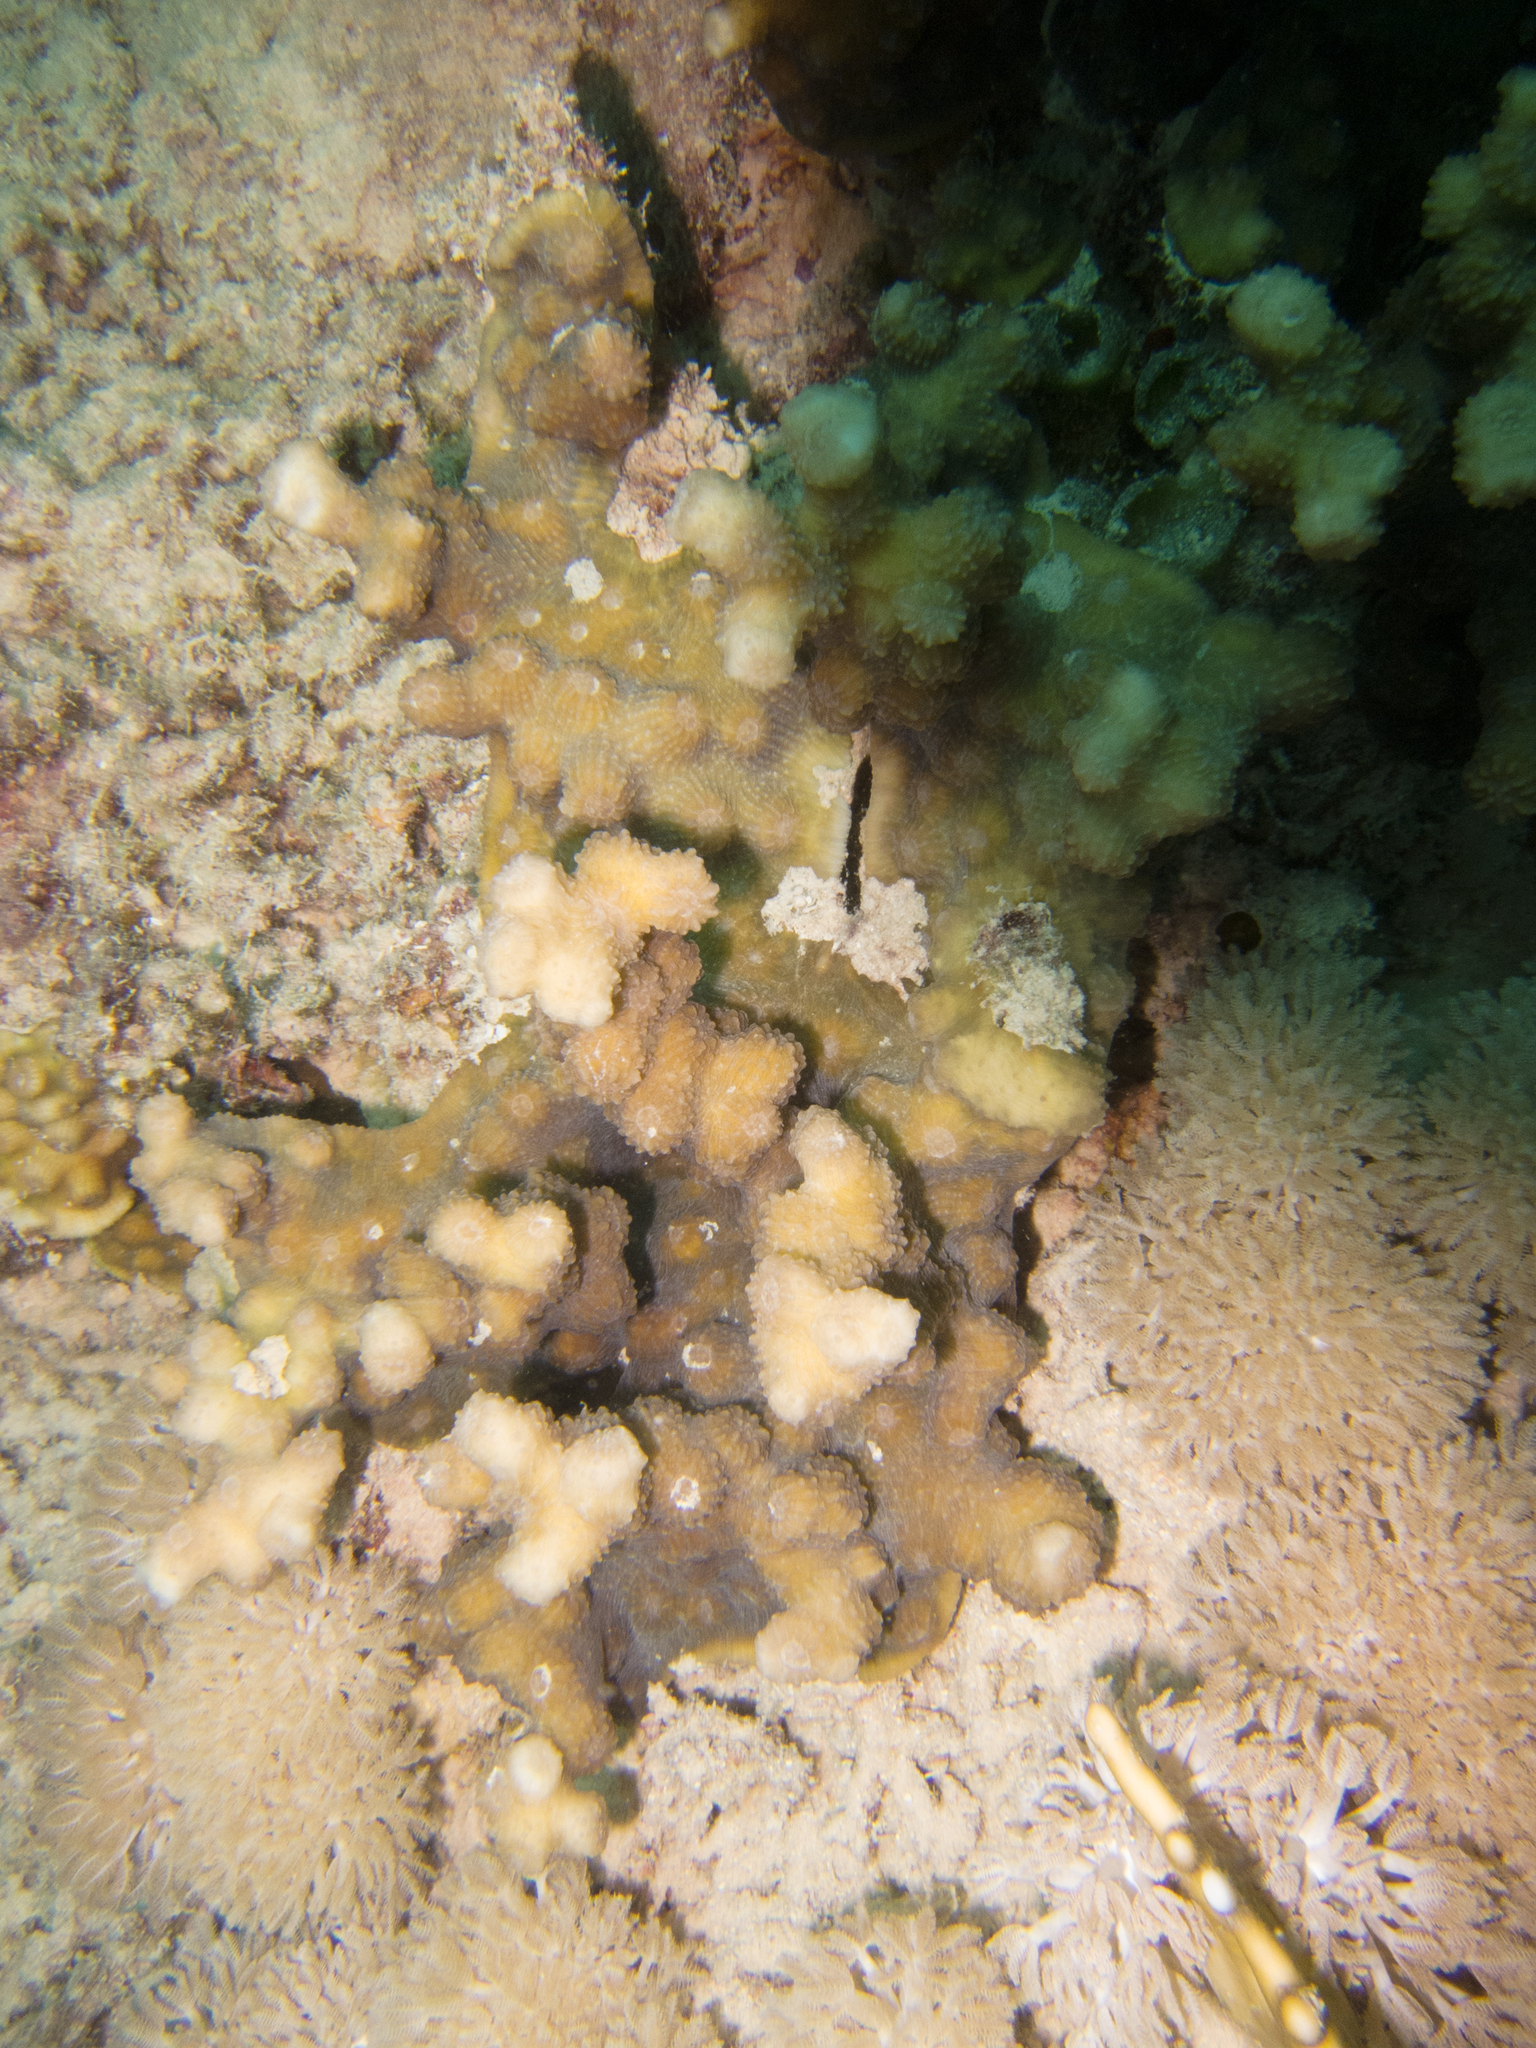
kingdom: Animalia
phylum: Cnidaria
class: Anthozoa
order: Scleractinia
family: Merulinidae
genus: Echinopora
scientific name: Echinopora fruticulosa
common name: Hedgehog coral
